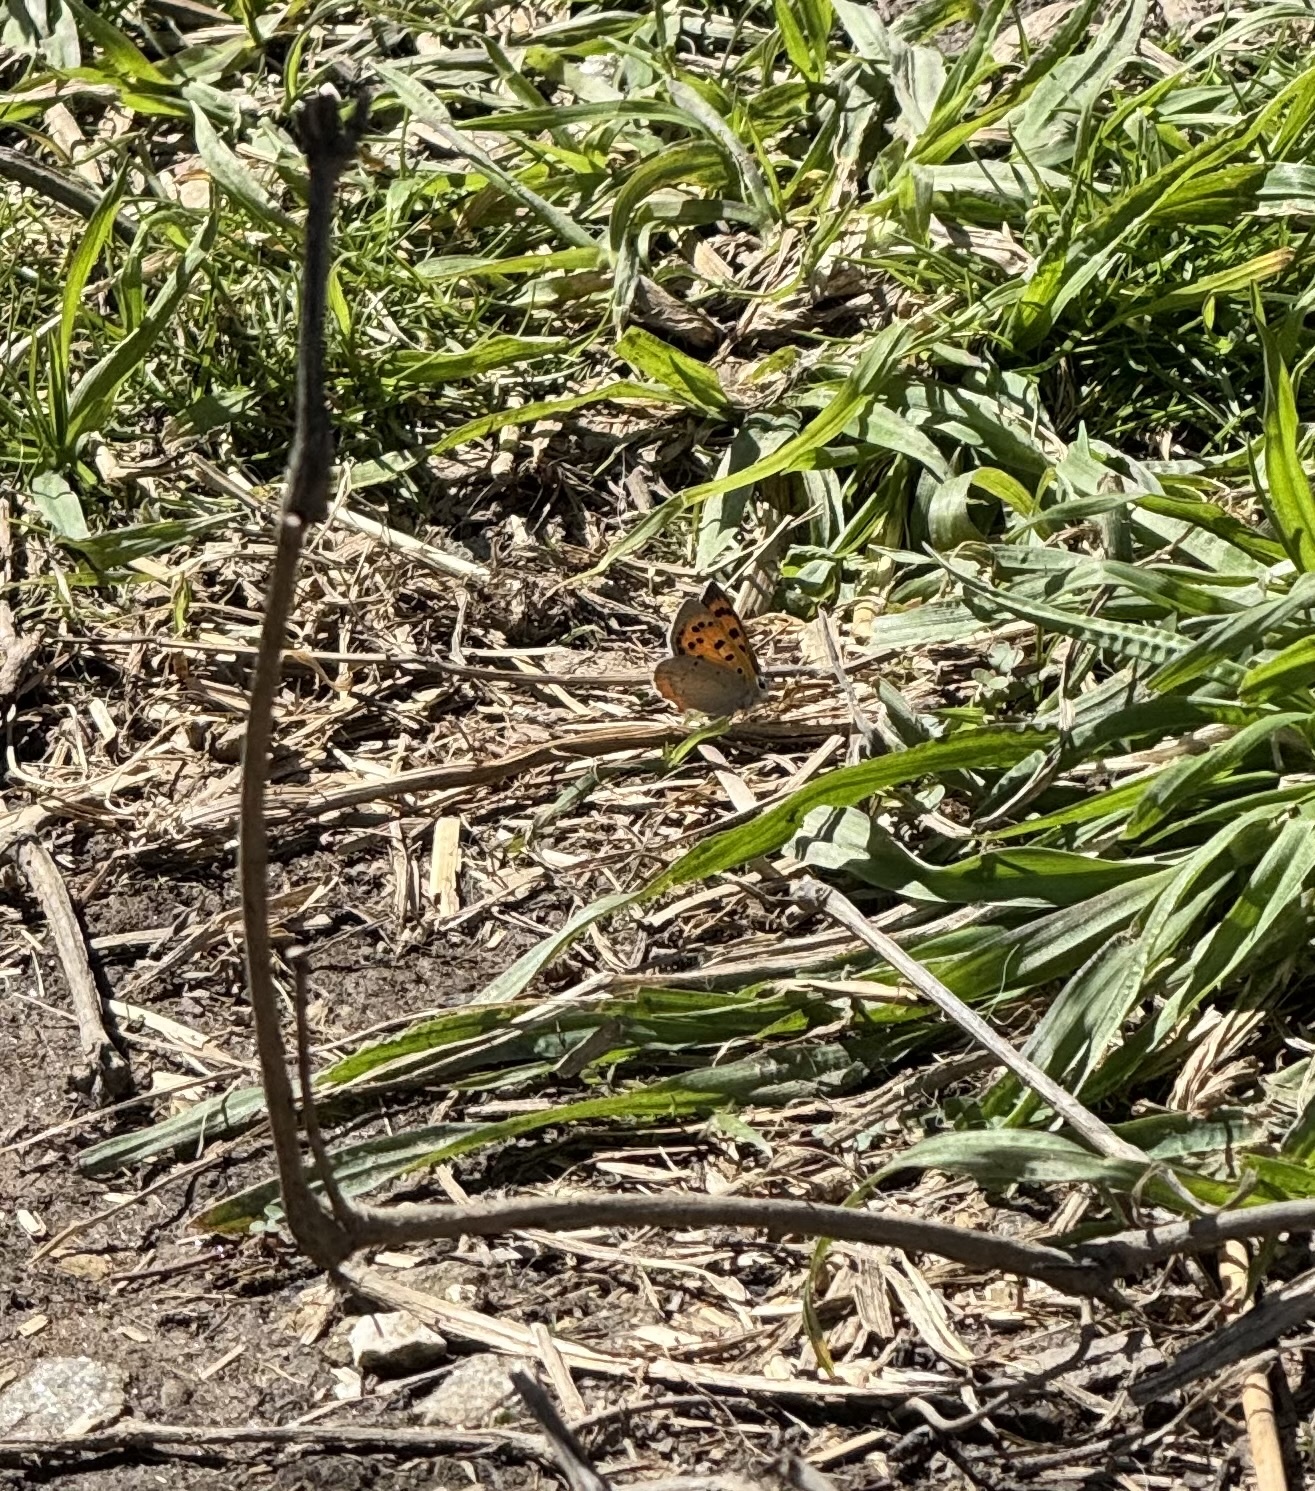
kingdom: Animalia
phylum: Arthropoda
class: Insecta
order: Lepidoptera
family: Lycaenidae
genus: Lycaena
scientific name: Lycaena phlaeas
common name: Small copper
